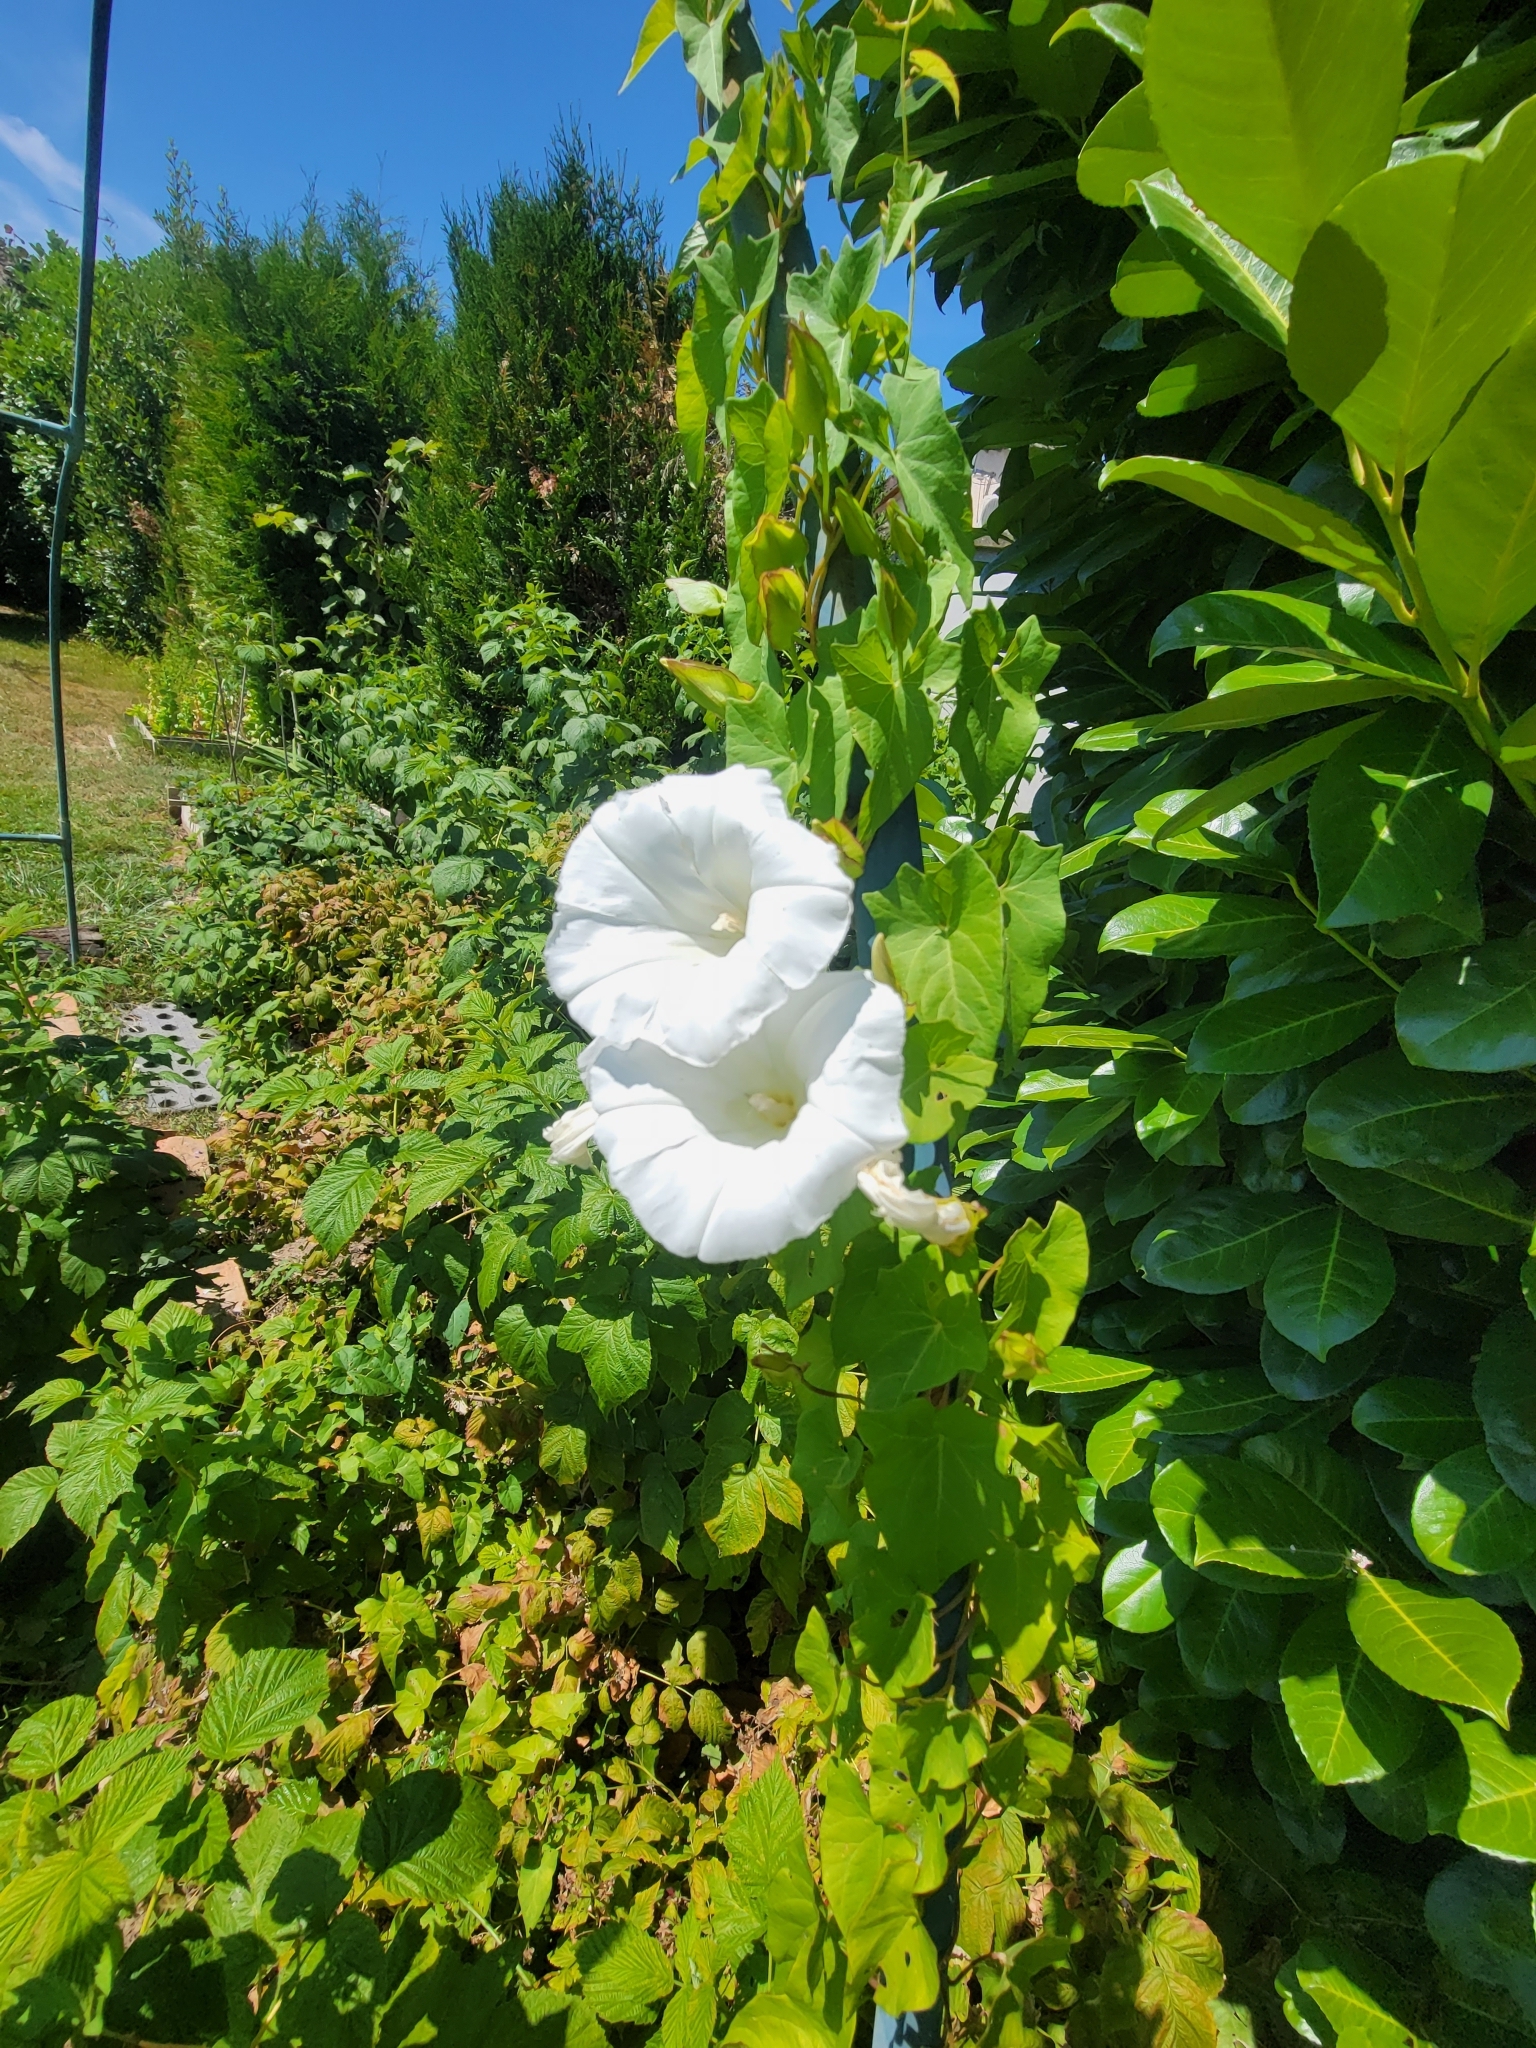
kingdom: Plantae
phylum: Tracheophyta
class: Magnoliopsida
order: Solanales
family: Convolvulaceae
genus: Calystegia
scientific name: Calystegia sepium
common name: Hedge bindweed
